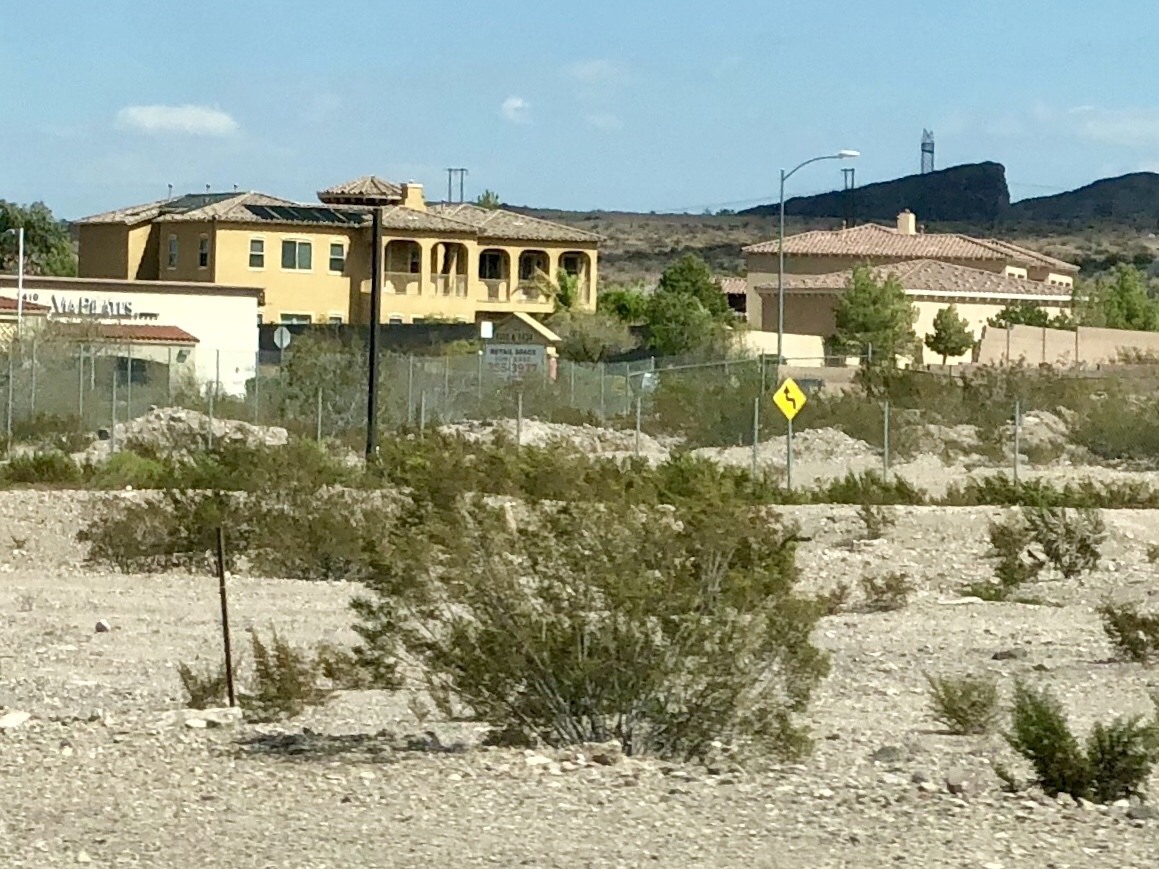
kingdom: Plantae
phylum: Tracheophyta
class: Magnoliopsida
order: Zygophyllales
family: Zygophyllaceae
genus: Larrea
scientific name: Larrea tridentata
